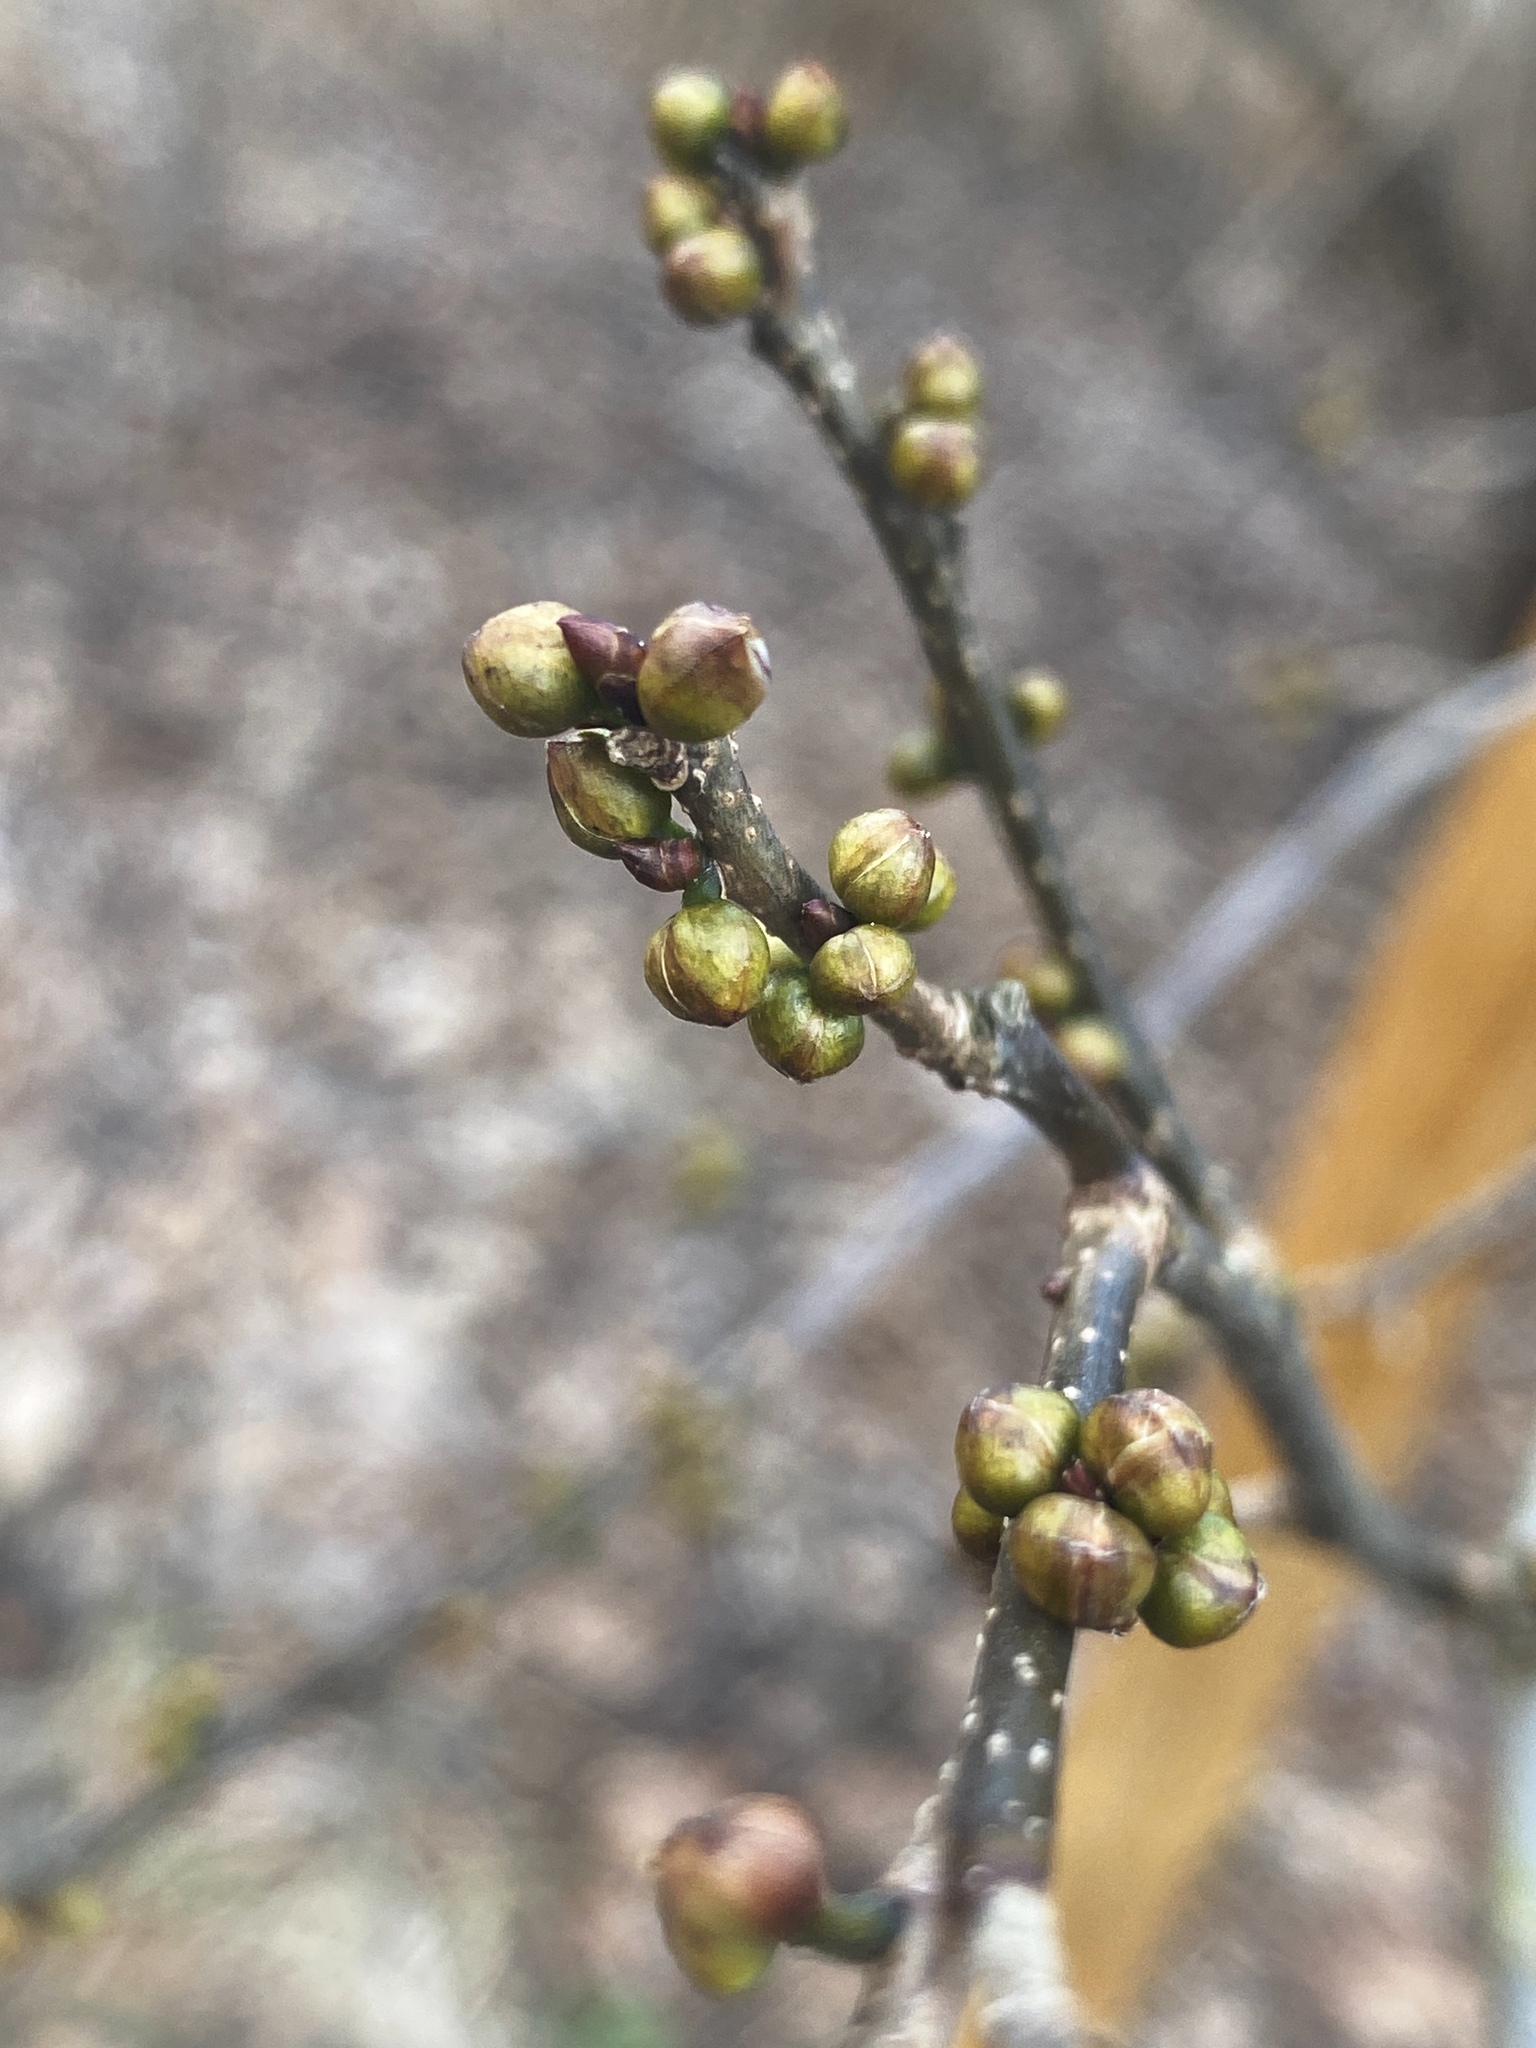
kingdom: Plantae
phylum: Tracheophyta
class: Magnoliopsida
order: Laurales
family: Lauraceae
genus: Lindera
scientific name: Lindera benzoin
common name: Spicebush
